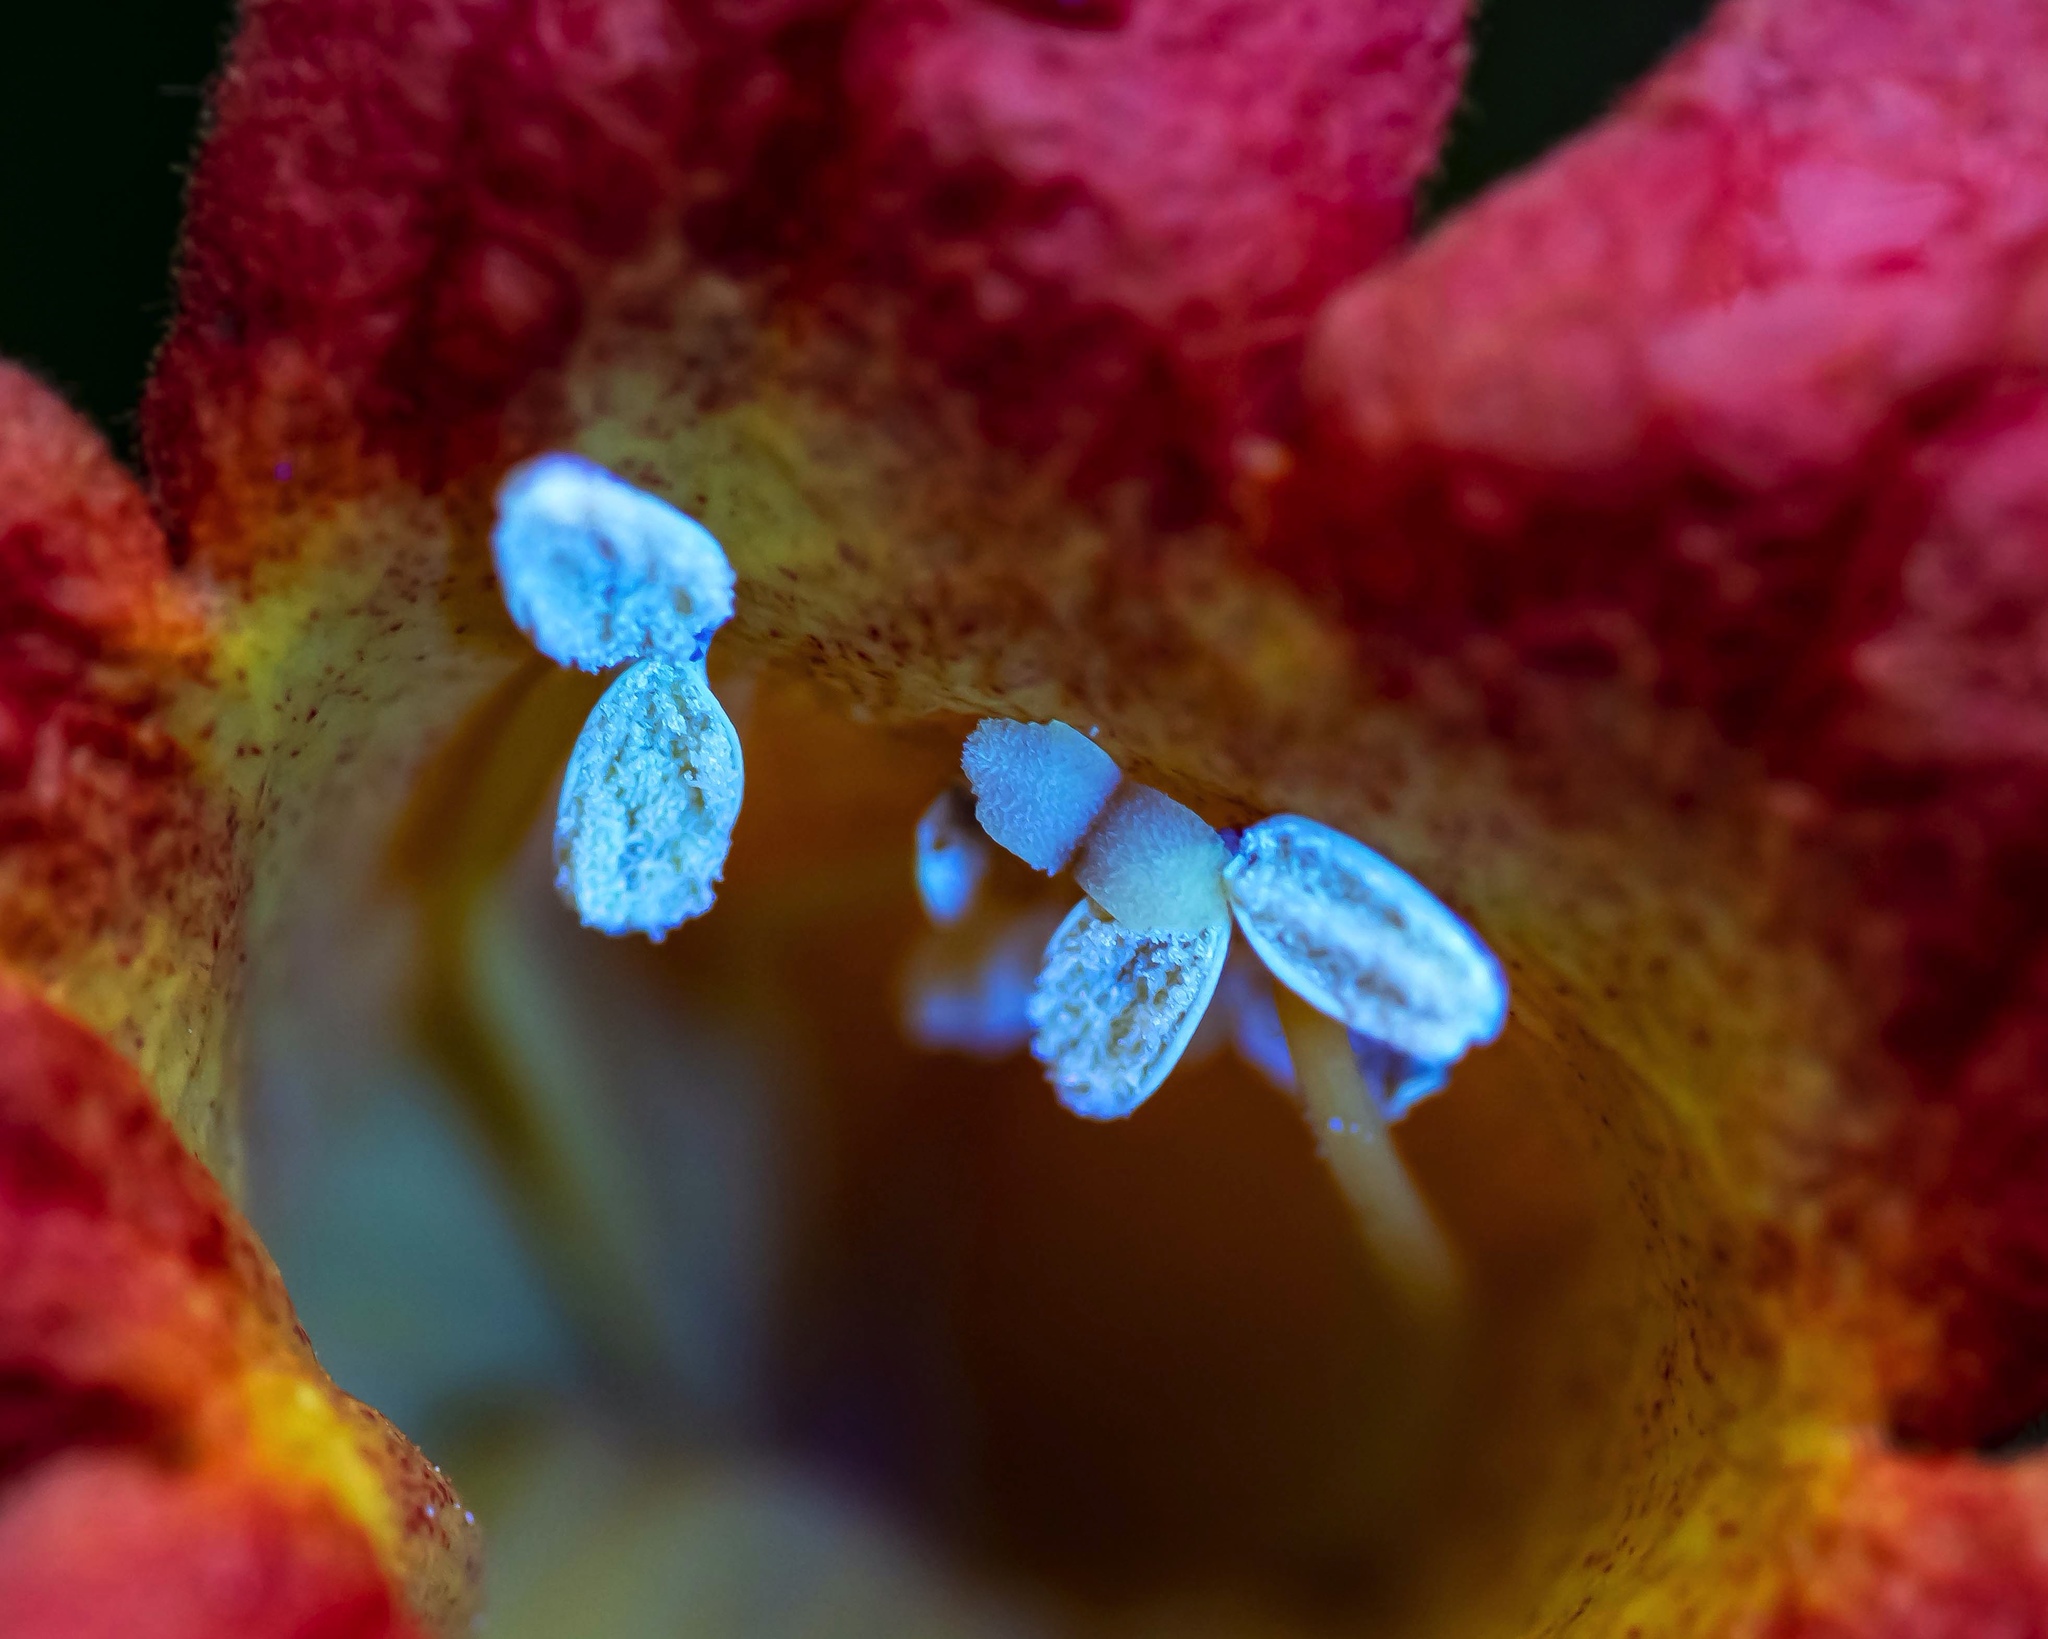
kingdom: Plantae
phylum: Tracheophyta
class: Magnoliopsida
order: Lamiales
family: Bignoniaceae
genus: Bignonia
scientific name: Bignonia capreolata
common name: Crossvine
